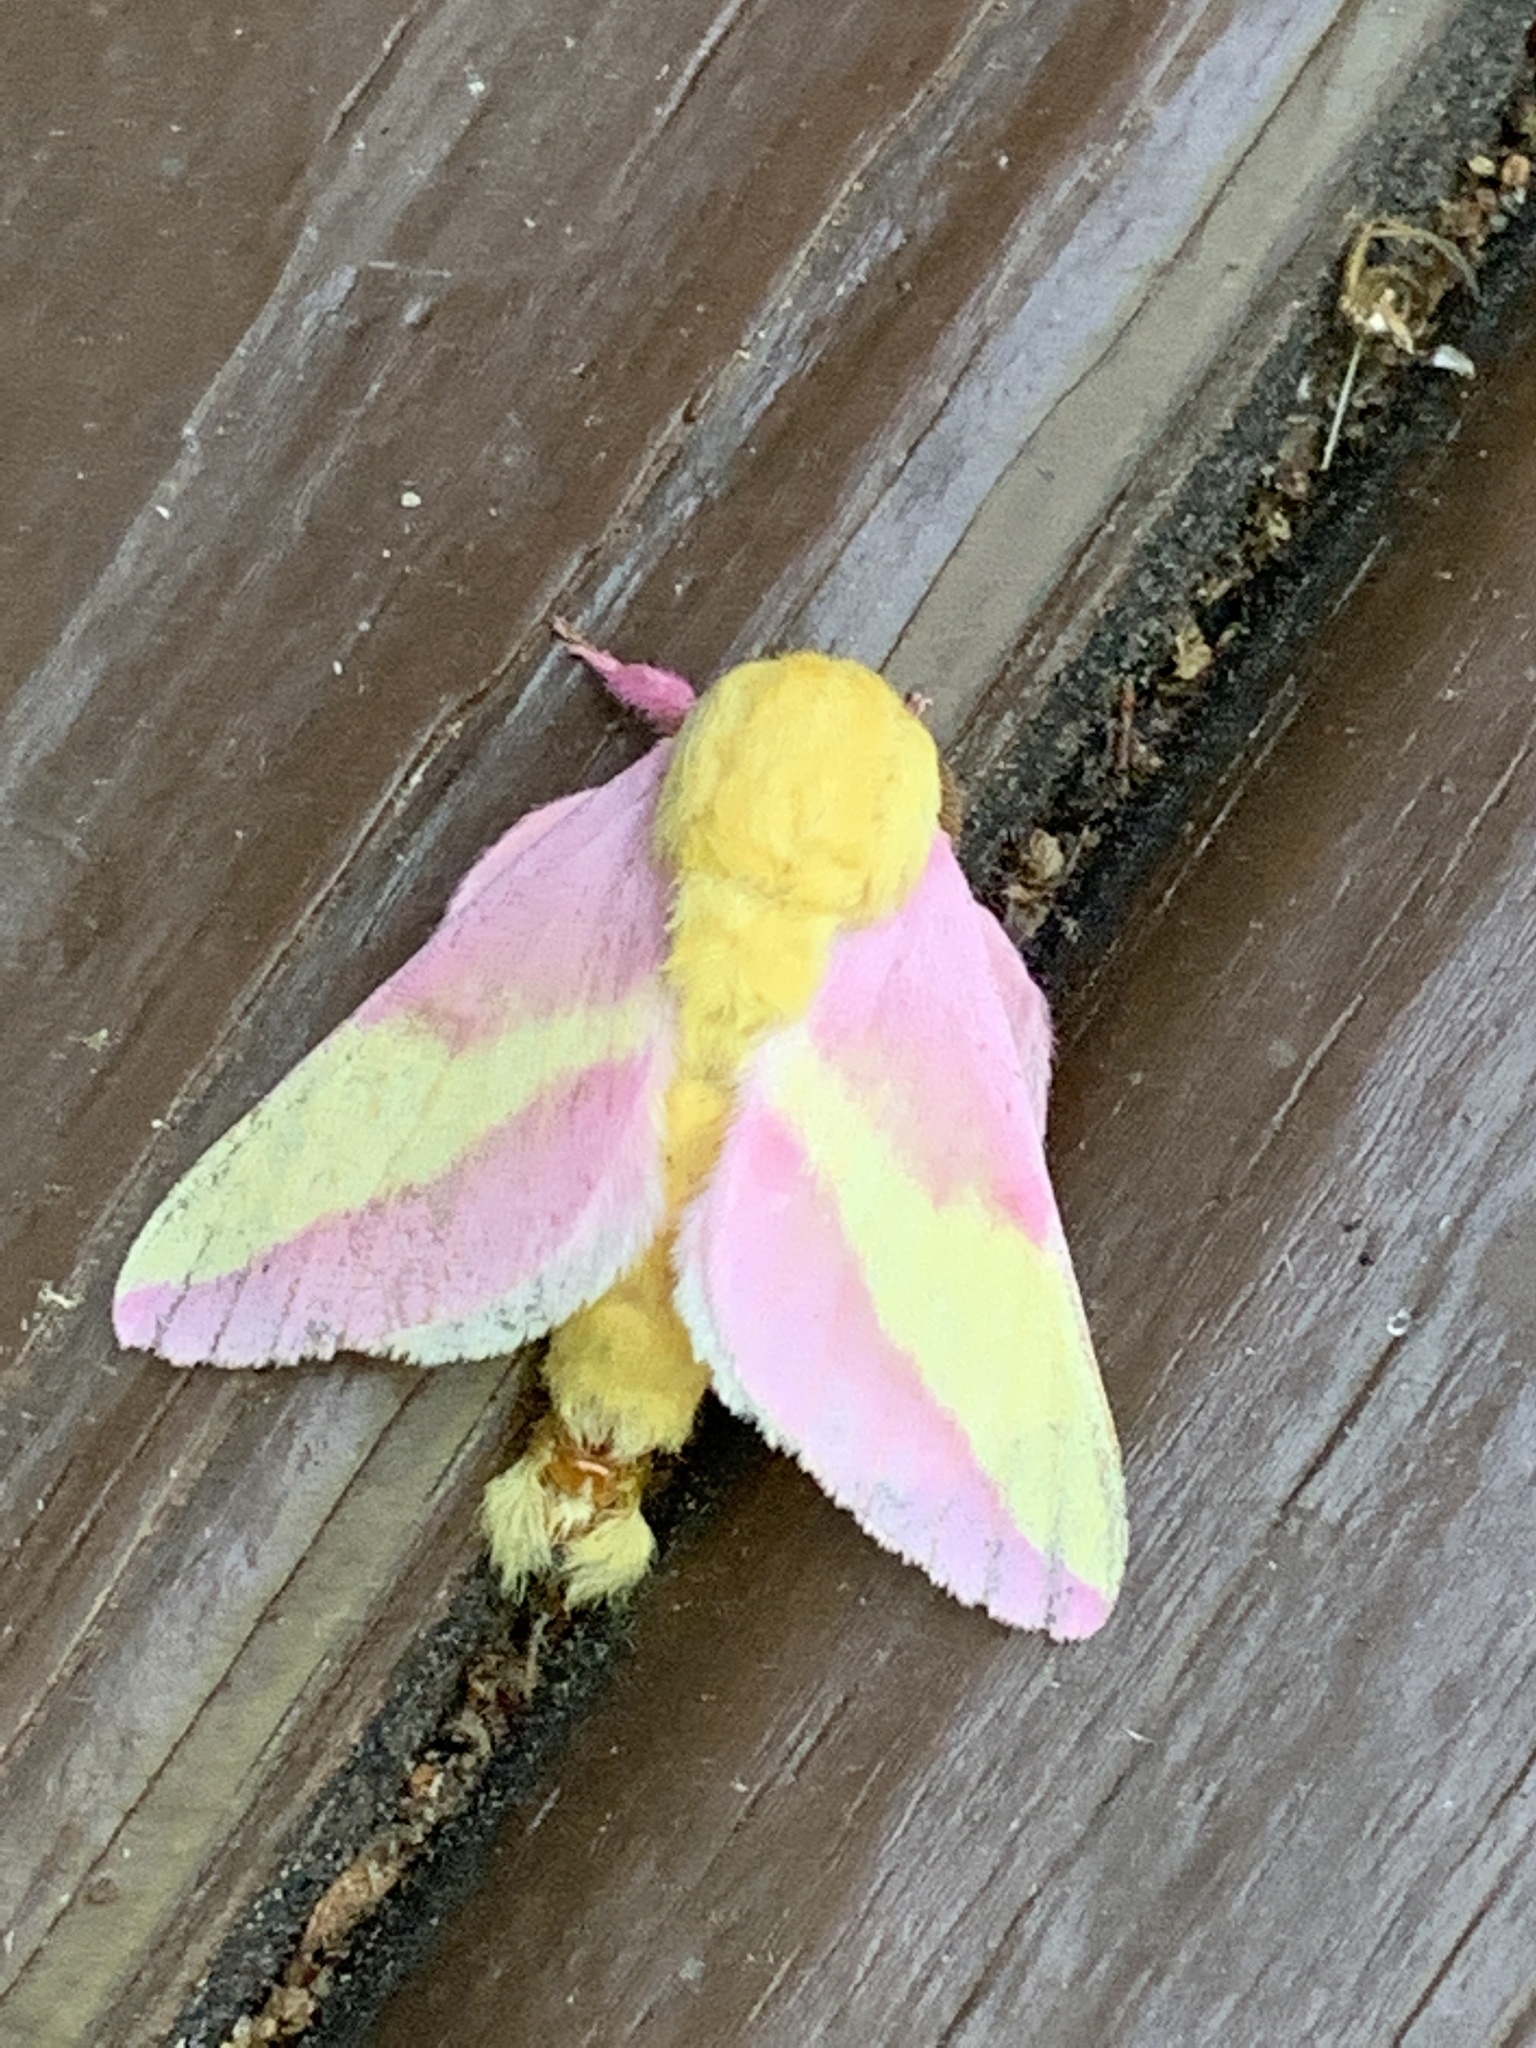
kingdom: Animalia
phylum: Arthropoda
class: Insecta
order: Lepidoptera
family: Saturniidae
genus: Dryocampa
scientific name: Dryocampa rubicunda
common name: Rosy maple moth
